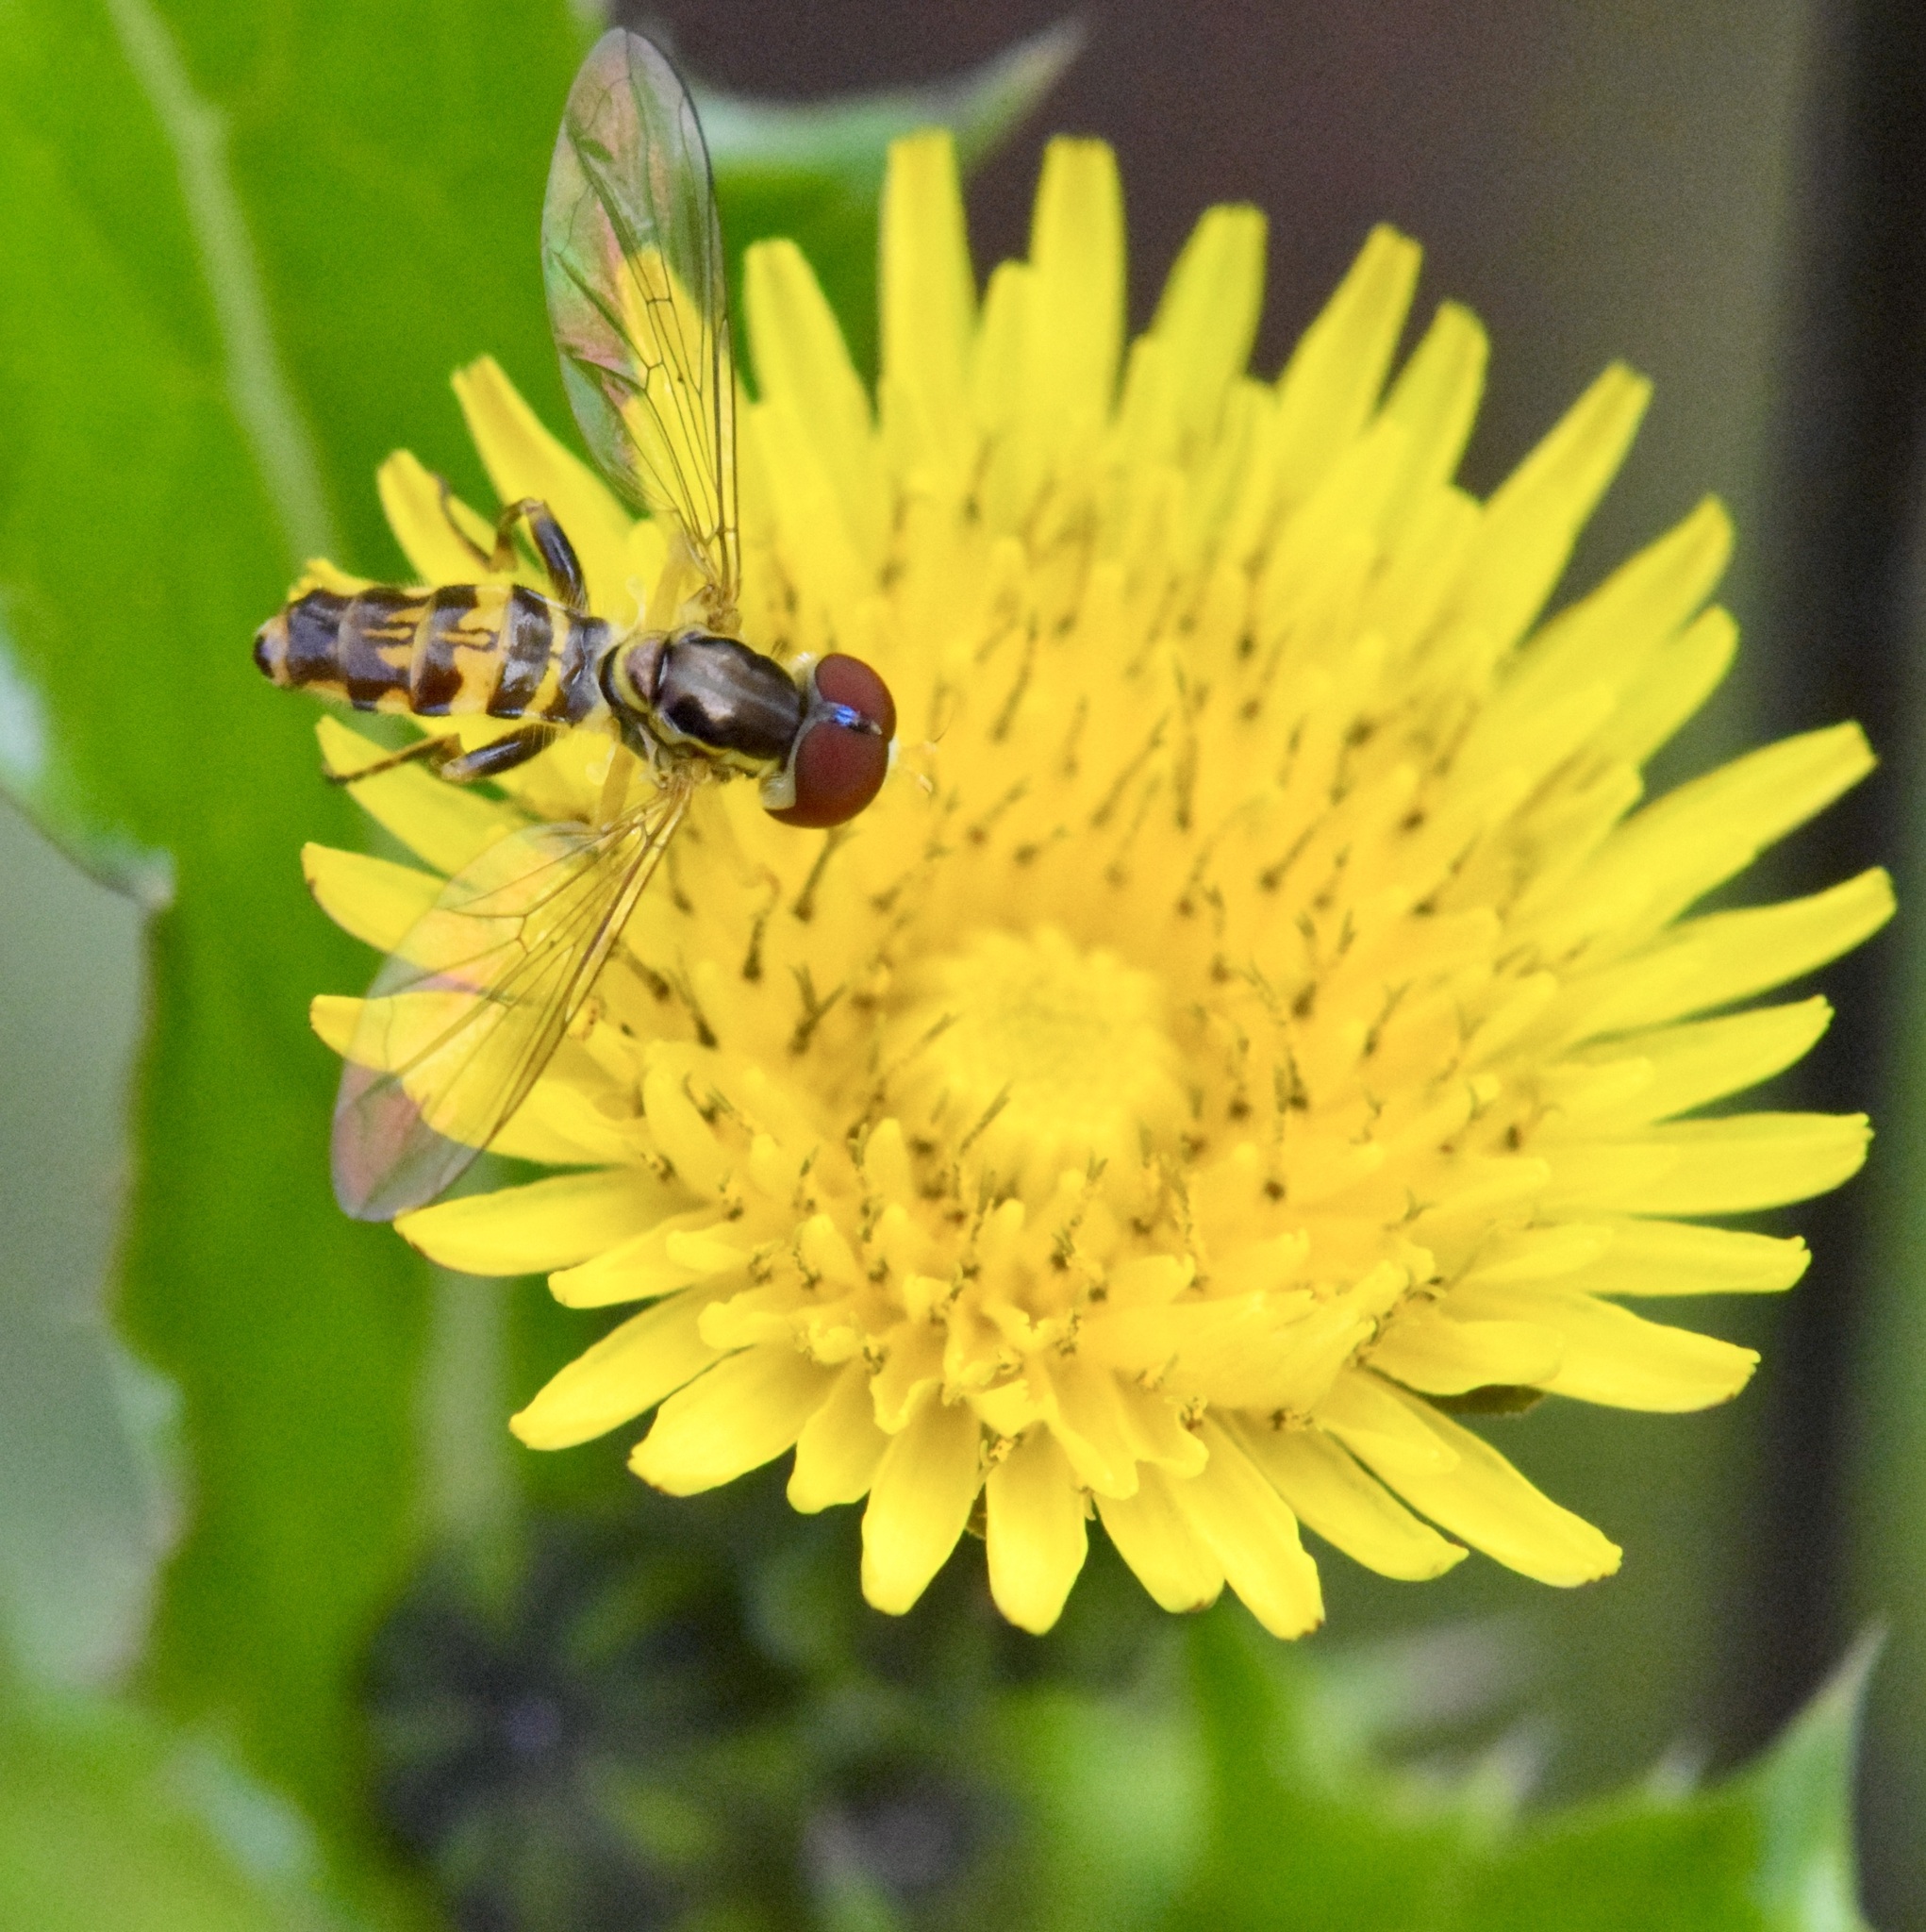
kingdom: Animalia
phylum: Arthropoda
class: Insecta
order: Diptera
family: Syrphidae
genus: Toxomerus
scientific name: Toxomerus geminatus
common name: Eastern calligrapher
